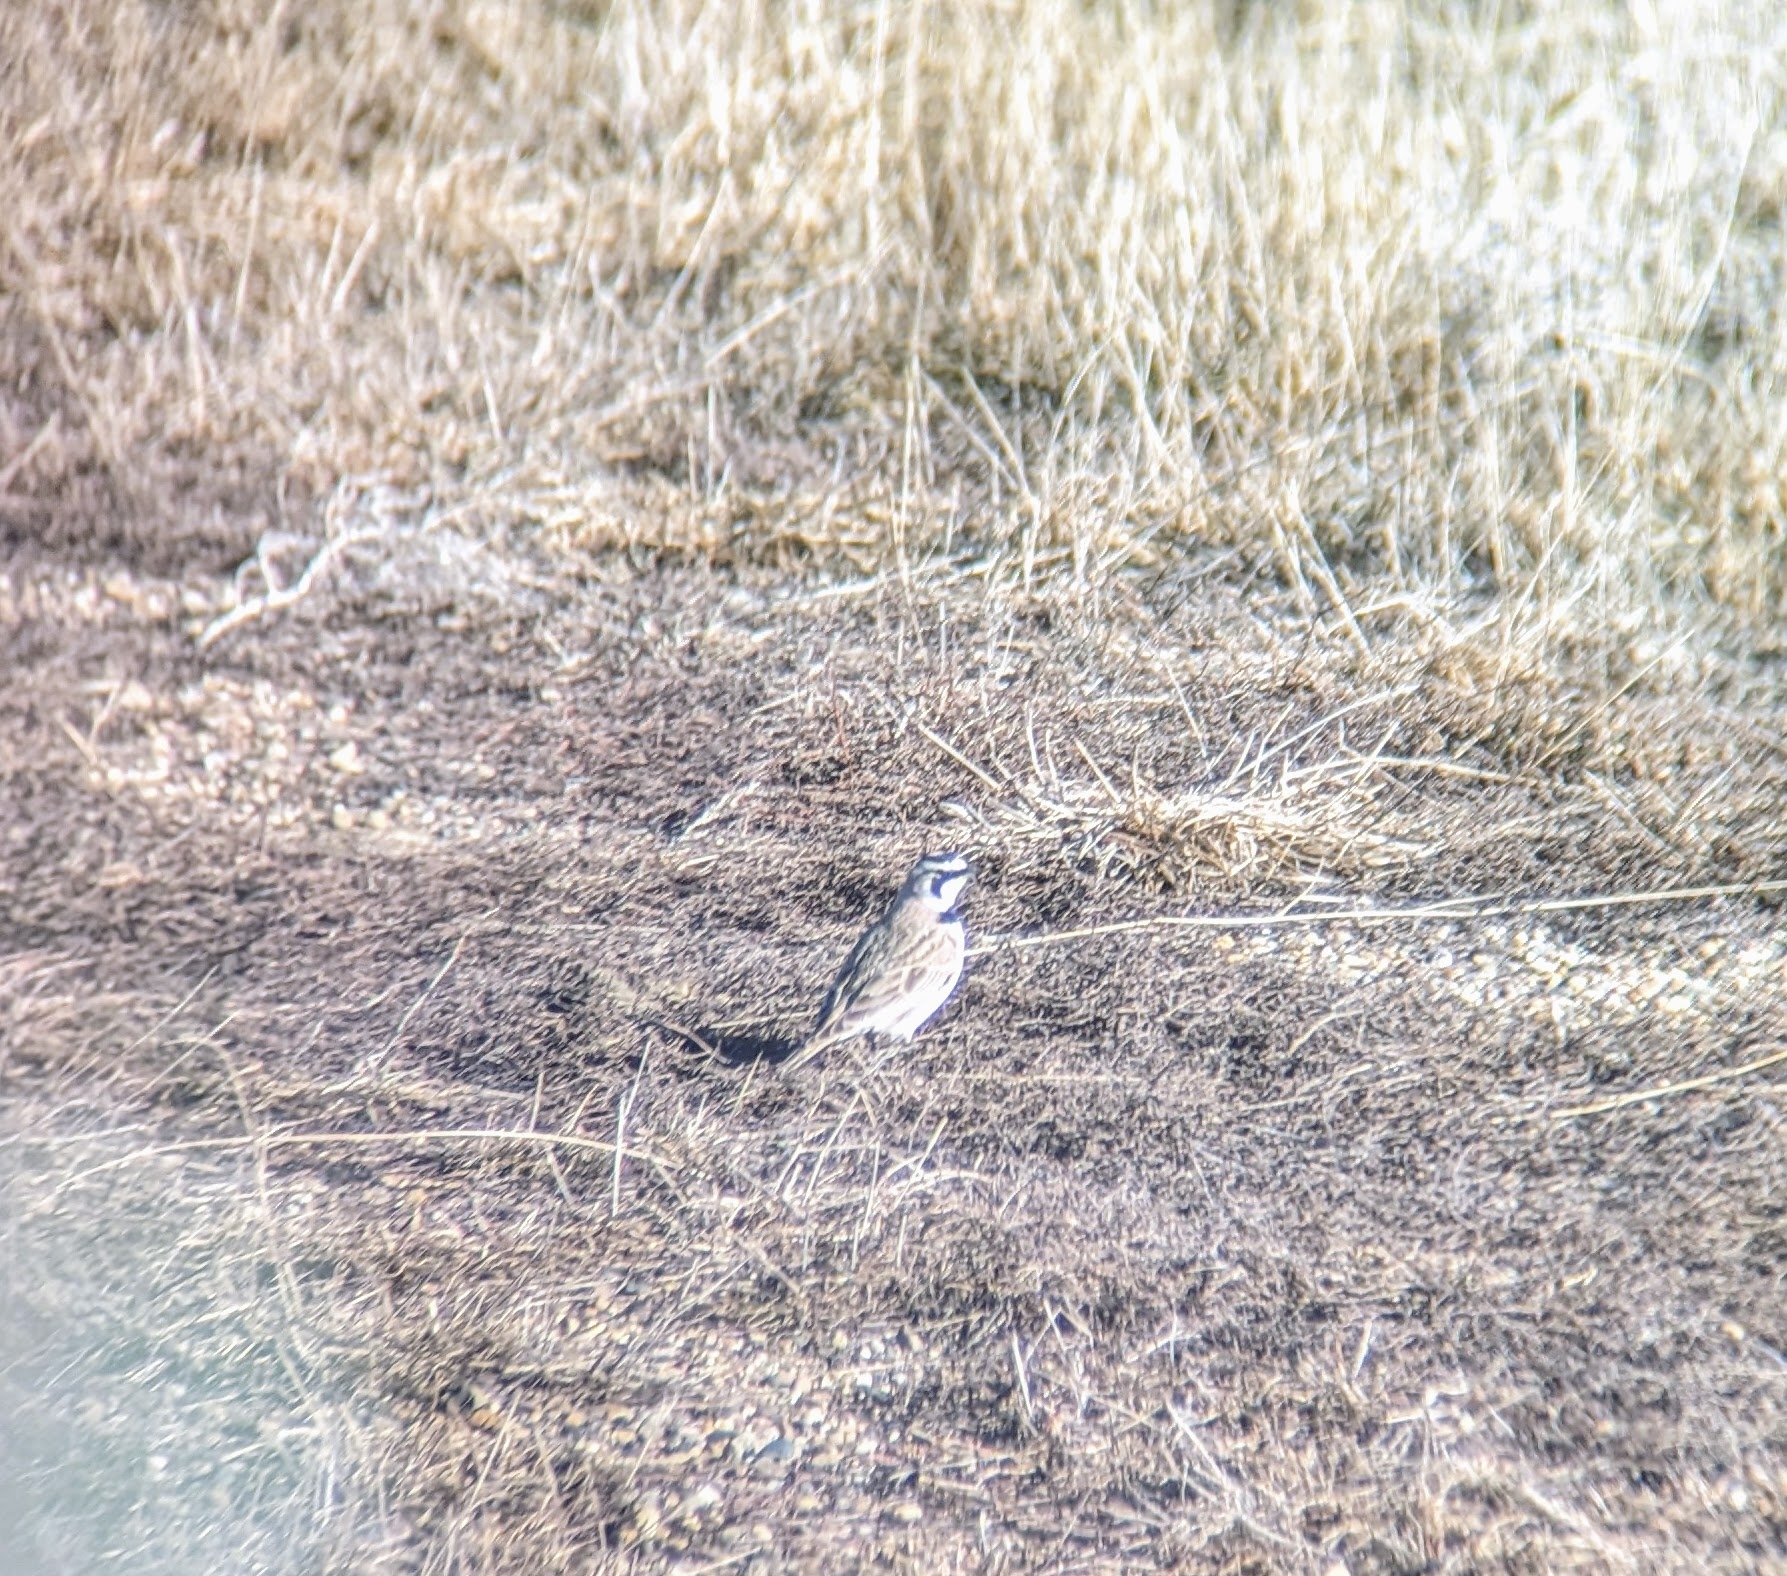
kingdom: Animalia
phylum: Chordata
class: Aves
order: Passeriformes
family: Alaudidae
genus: Eremophila
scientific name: Eremophila alpestris
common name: Horned lark
